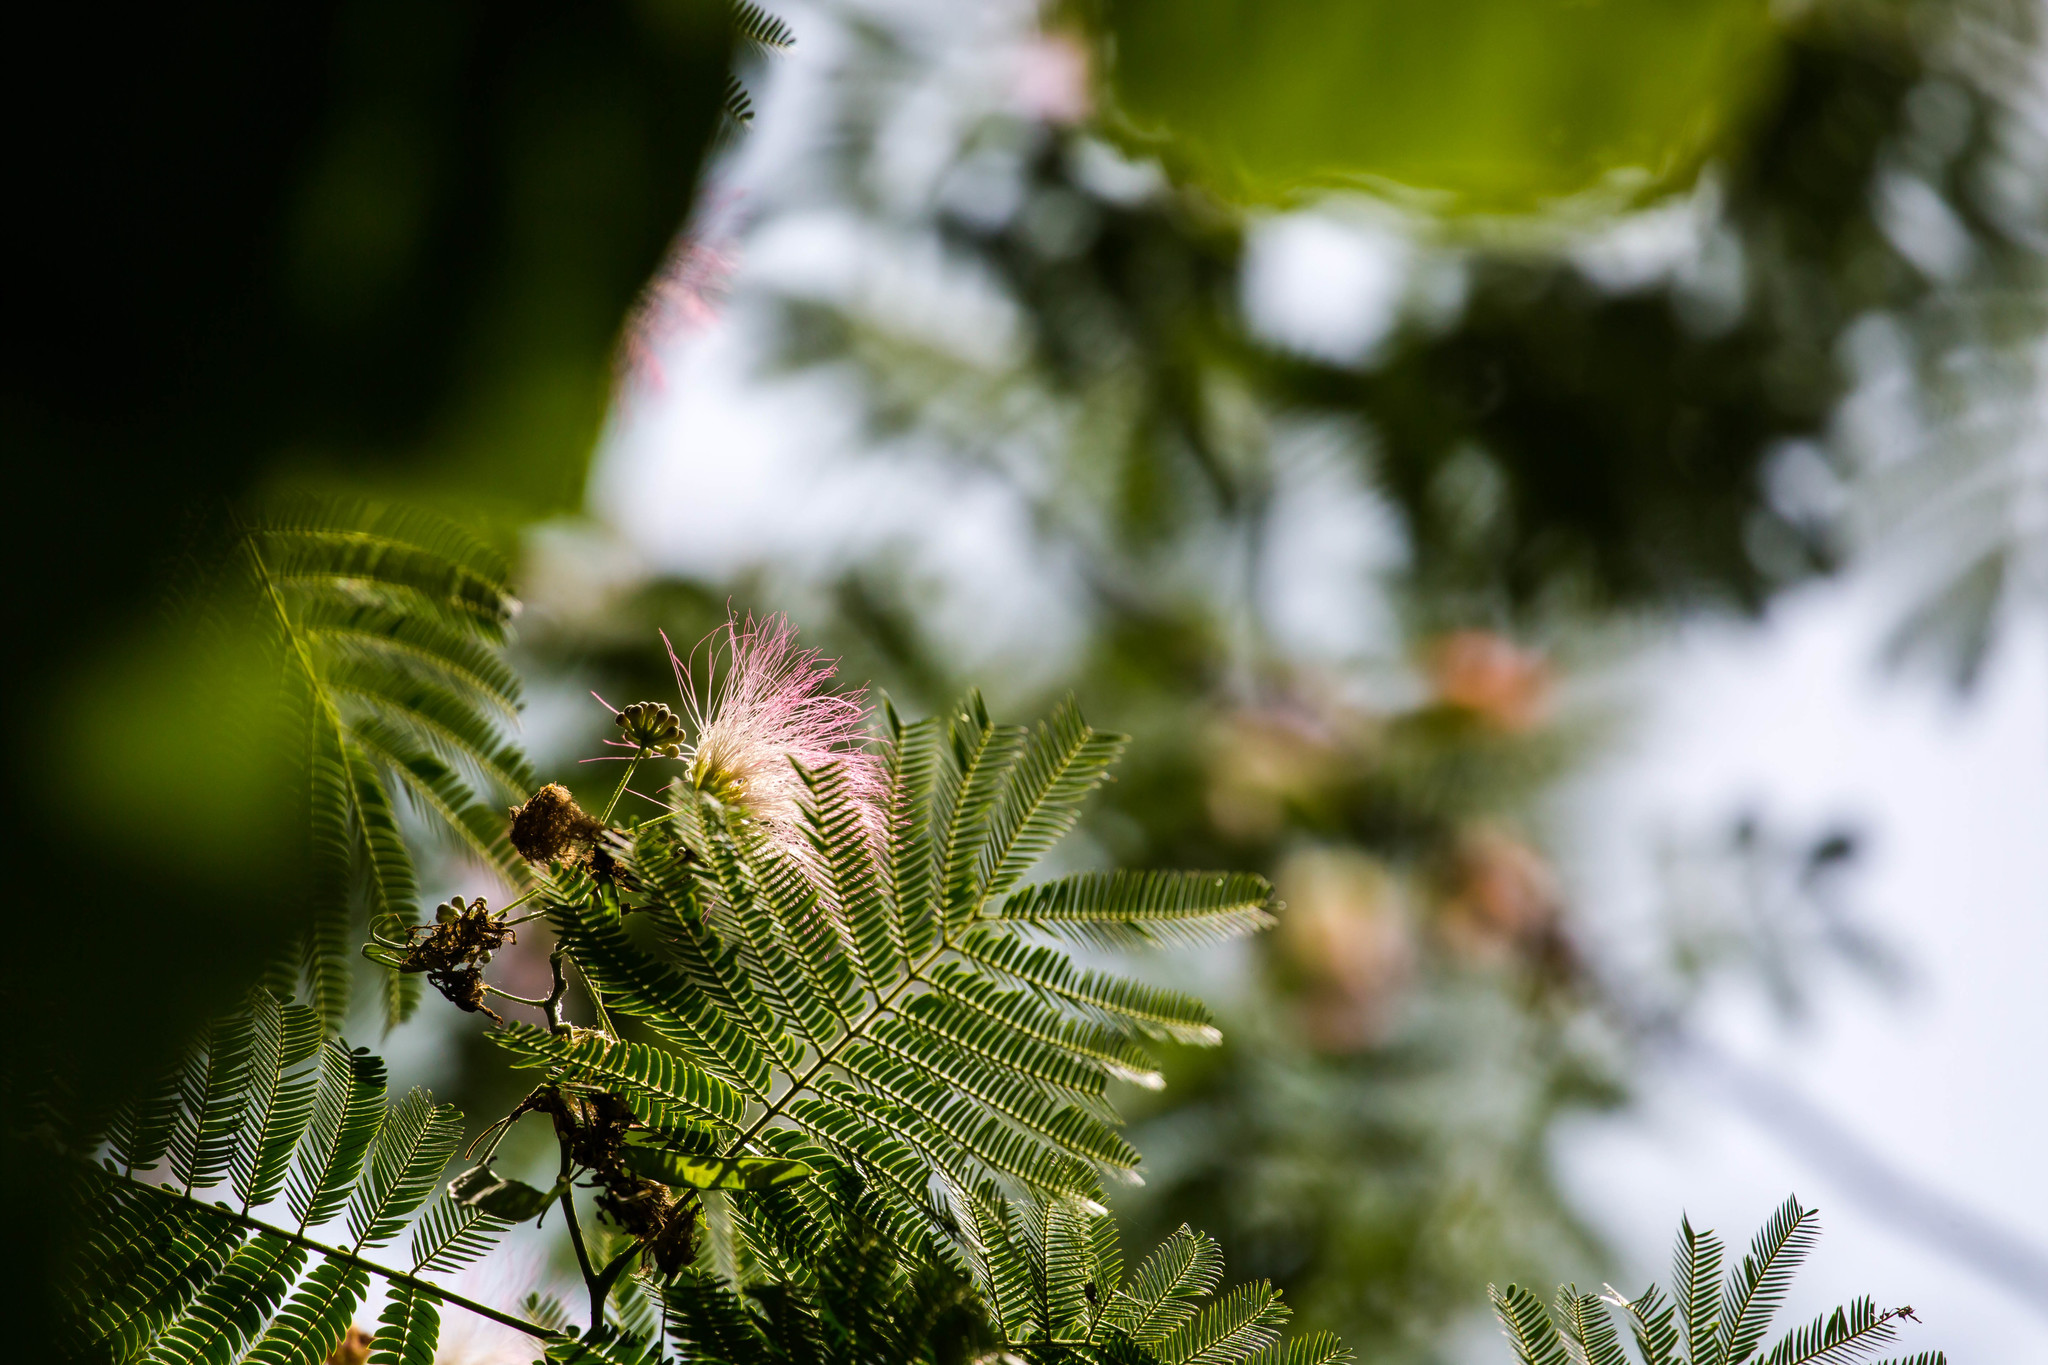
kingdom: Plantae
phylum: Tracheophyta
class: Magnoliopsida
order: Fabales
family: Fabaceae
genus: Albizia
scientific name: Albizia julibrissin
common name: Silktree
